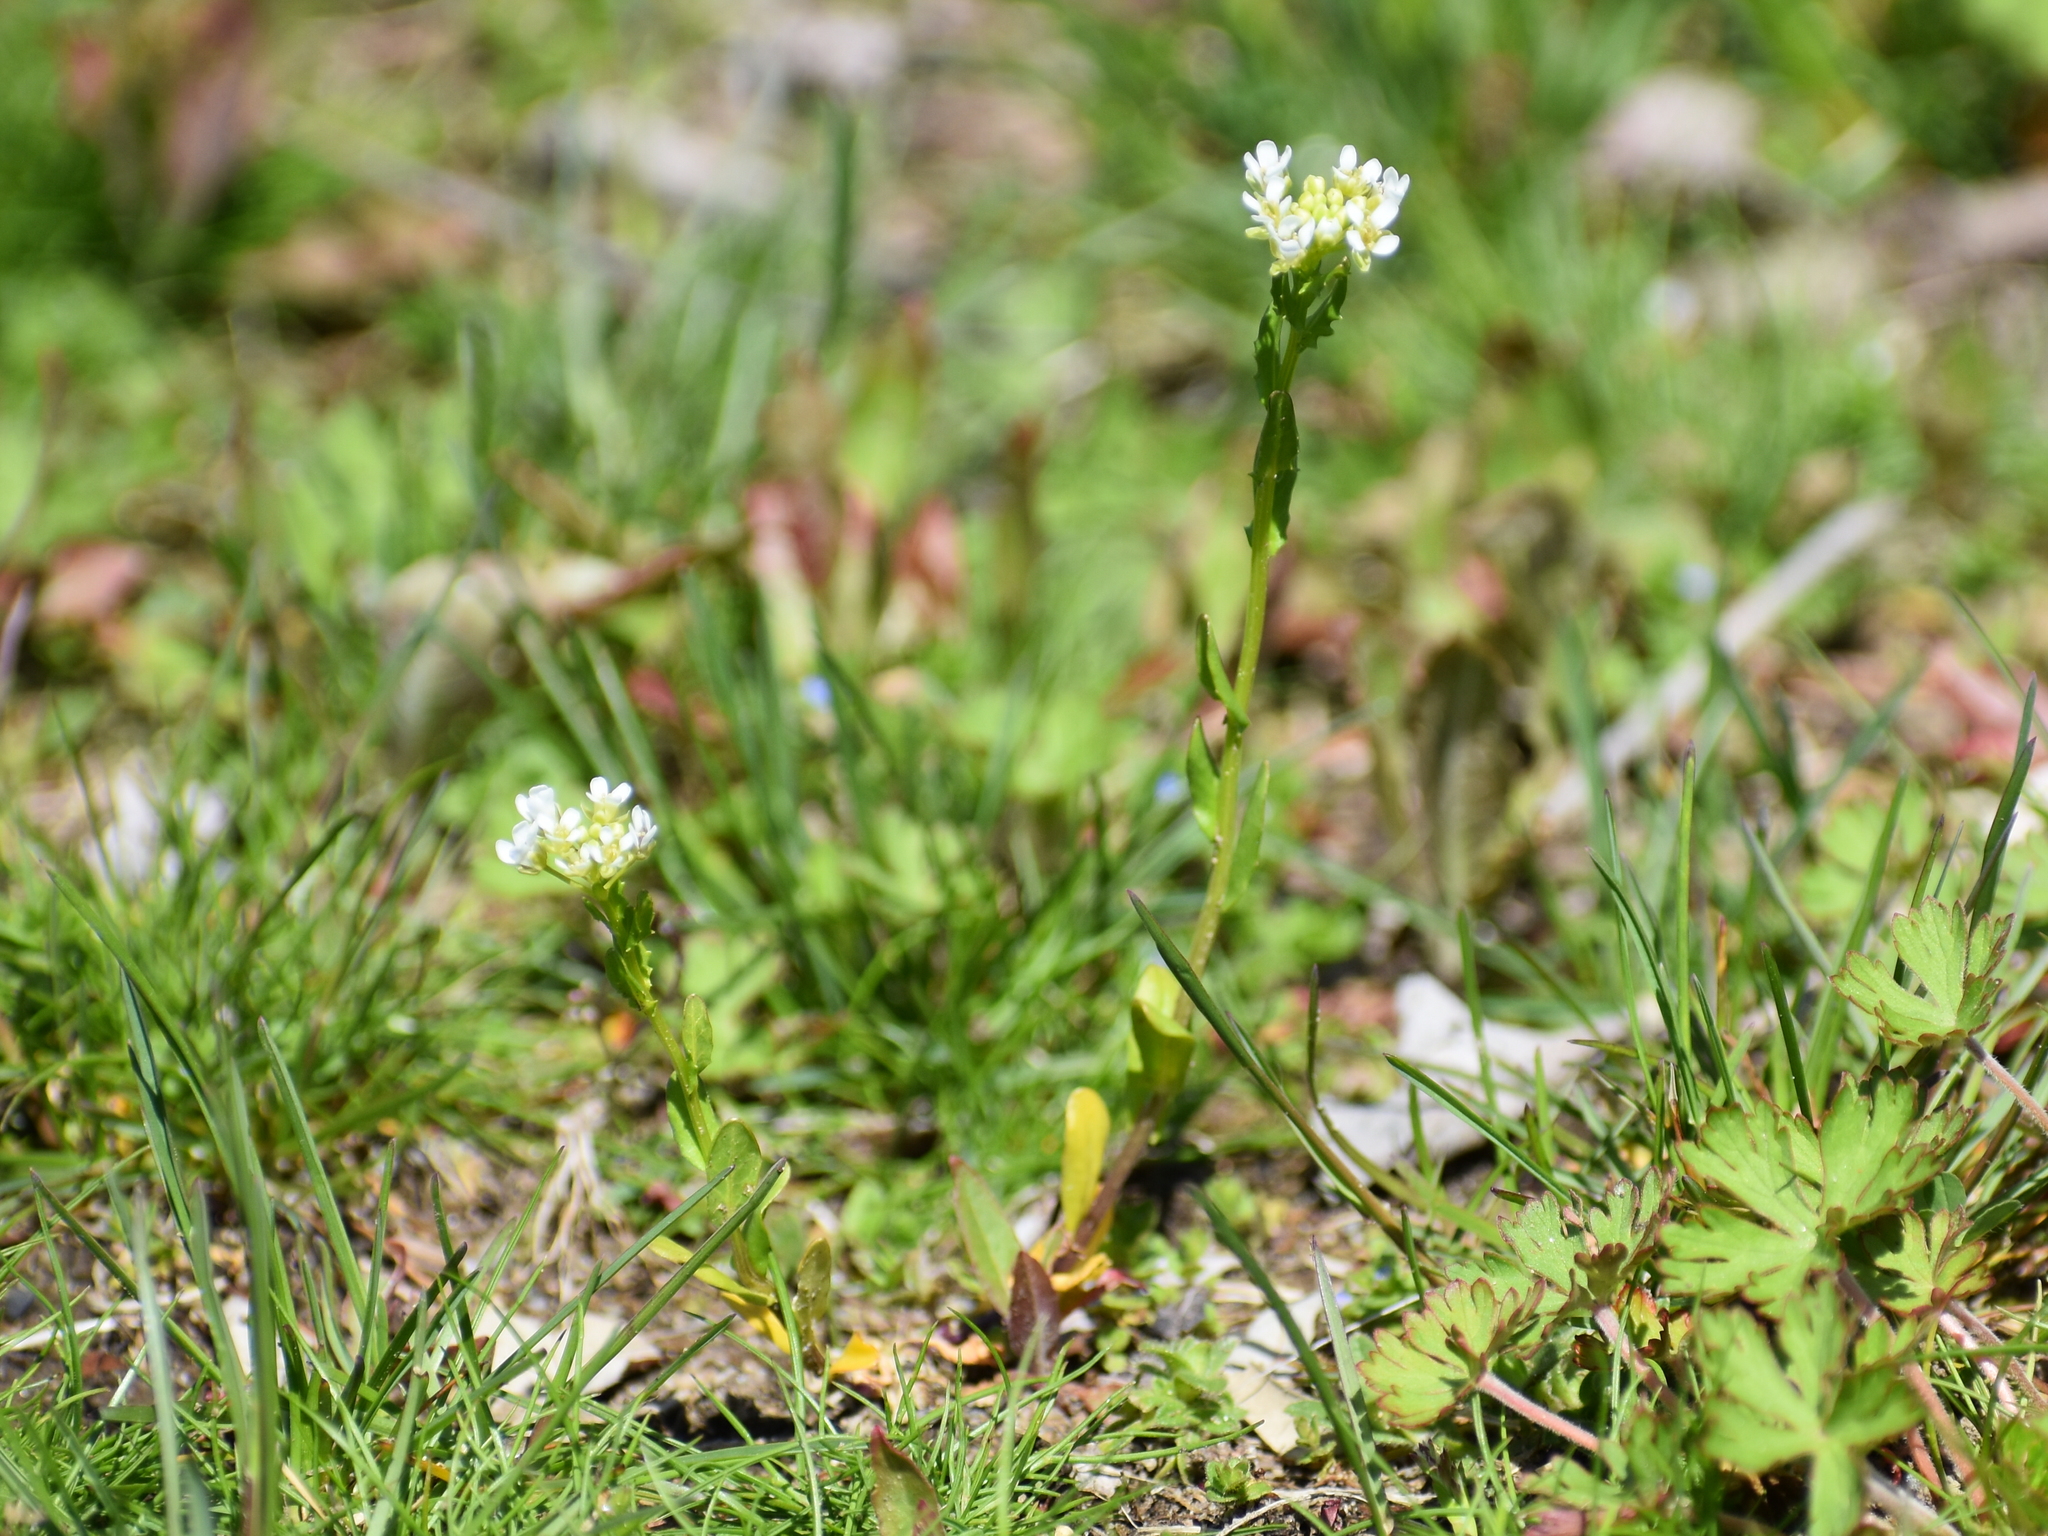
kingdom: Plantae
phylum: Tracheophyta
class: Magnoliopsida
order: Brassicales
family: Brassicaceae
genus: Thlaspi
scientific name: Thlaspi arvense
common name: Field pennycress
